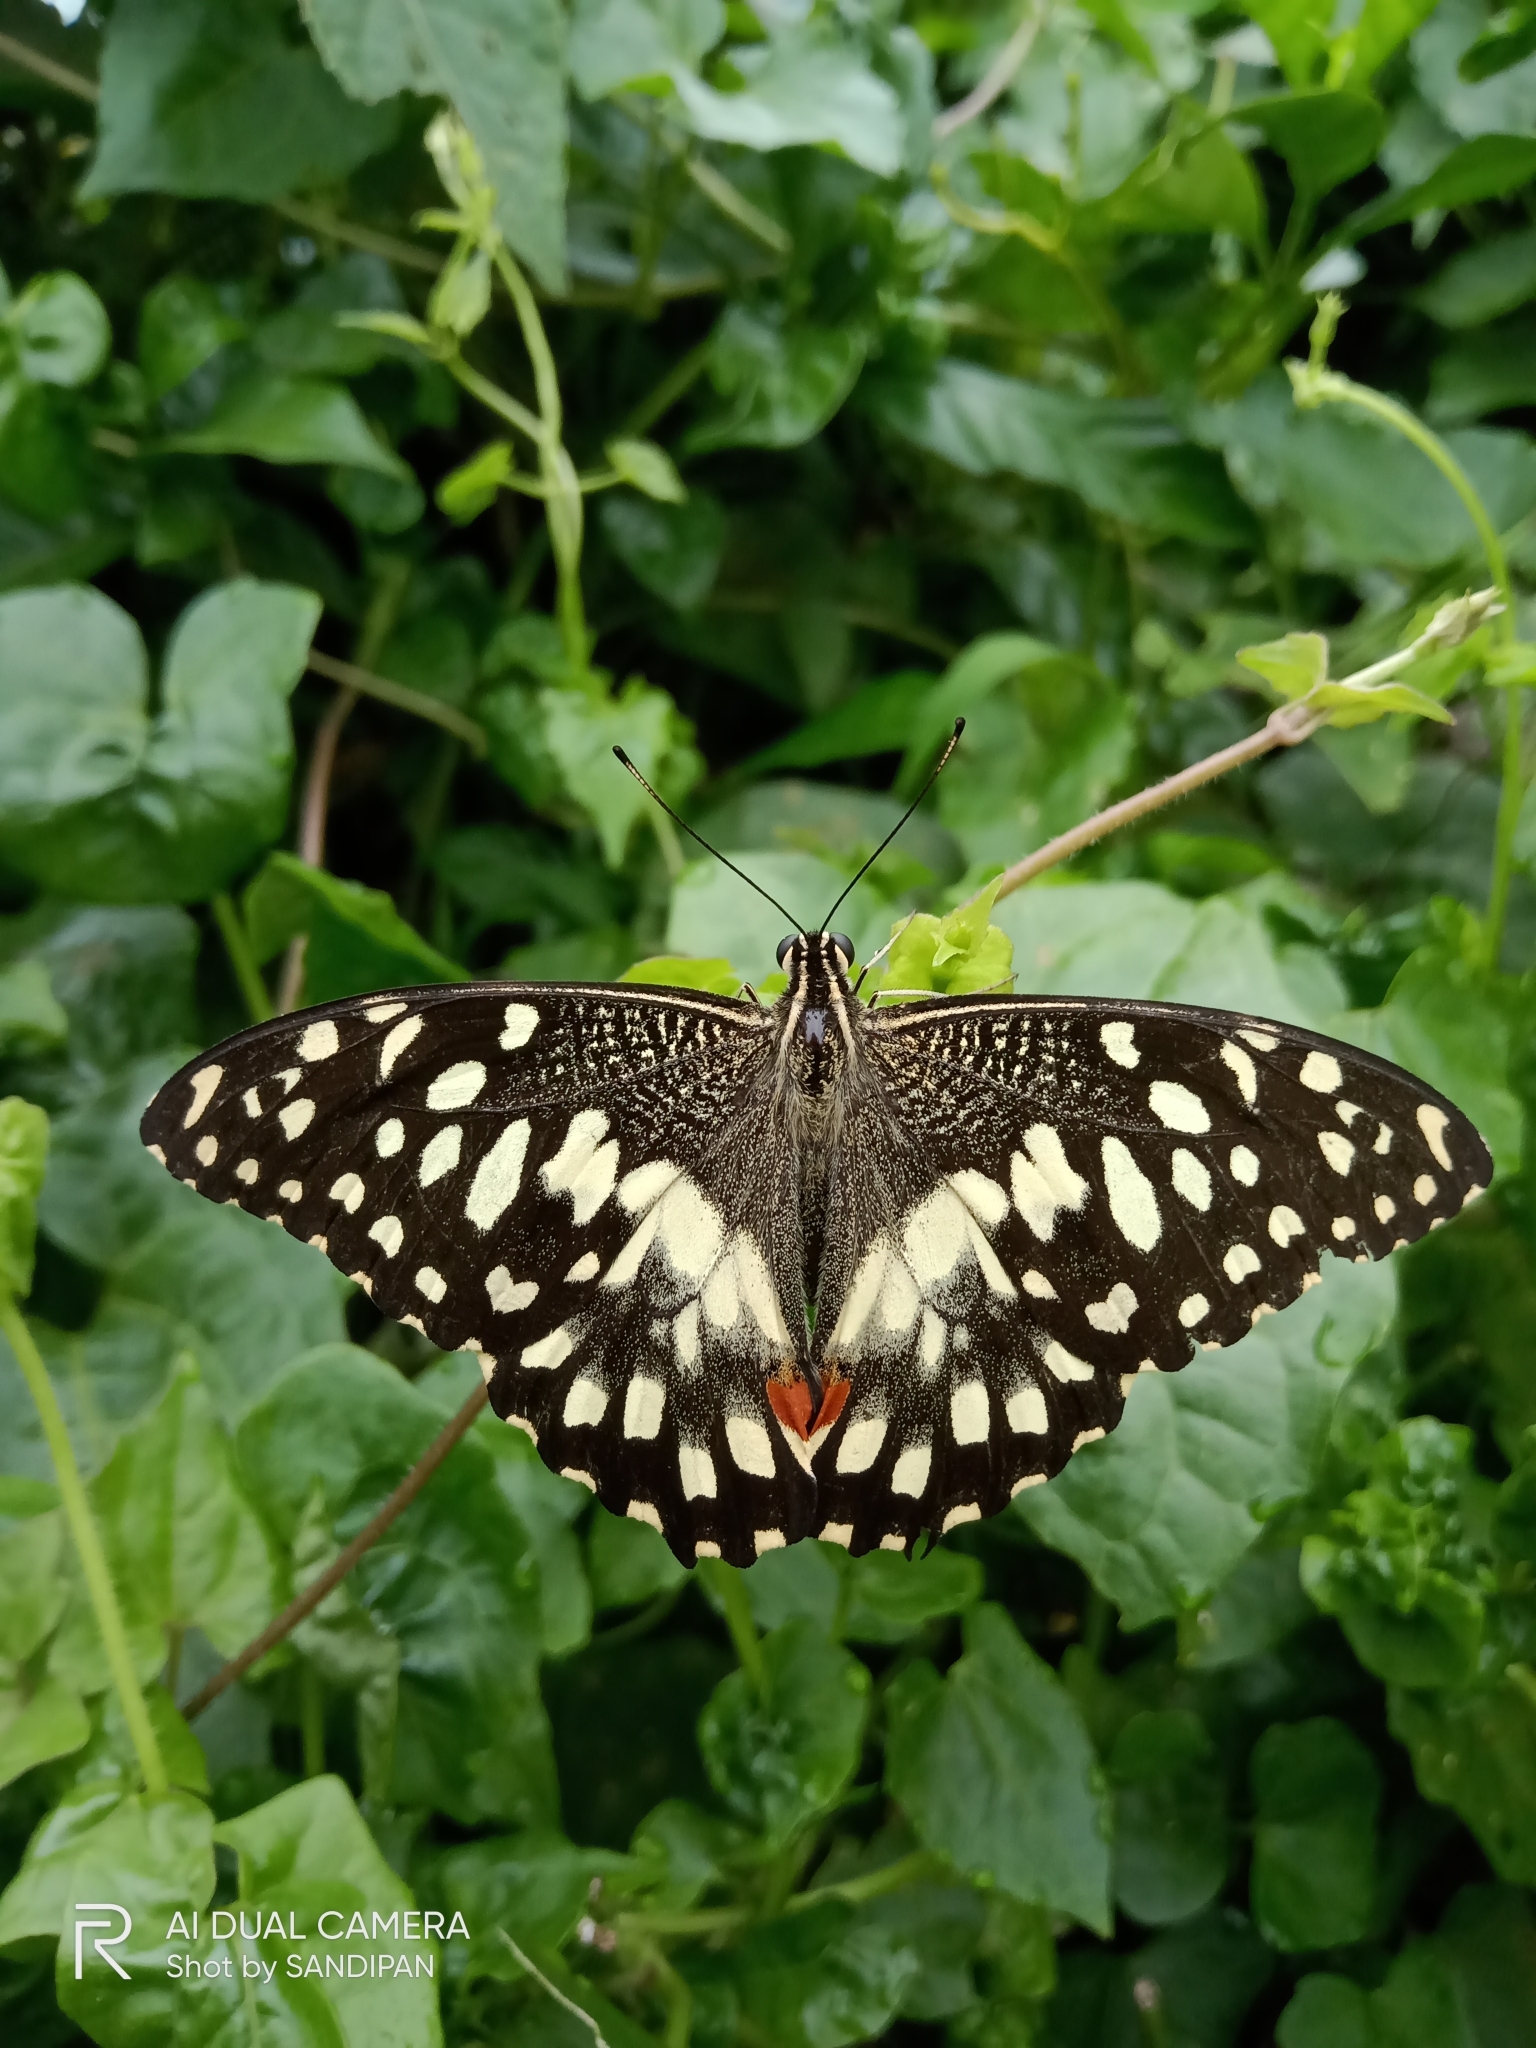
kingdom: Animalia
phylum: Arthropoda
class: Insecta
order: Lepidoptera
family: Papilionidae
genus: Papilio
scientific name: Papilio demoleus
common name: Lime butterfly
